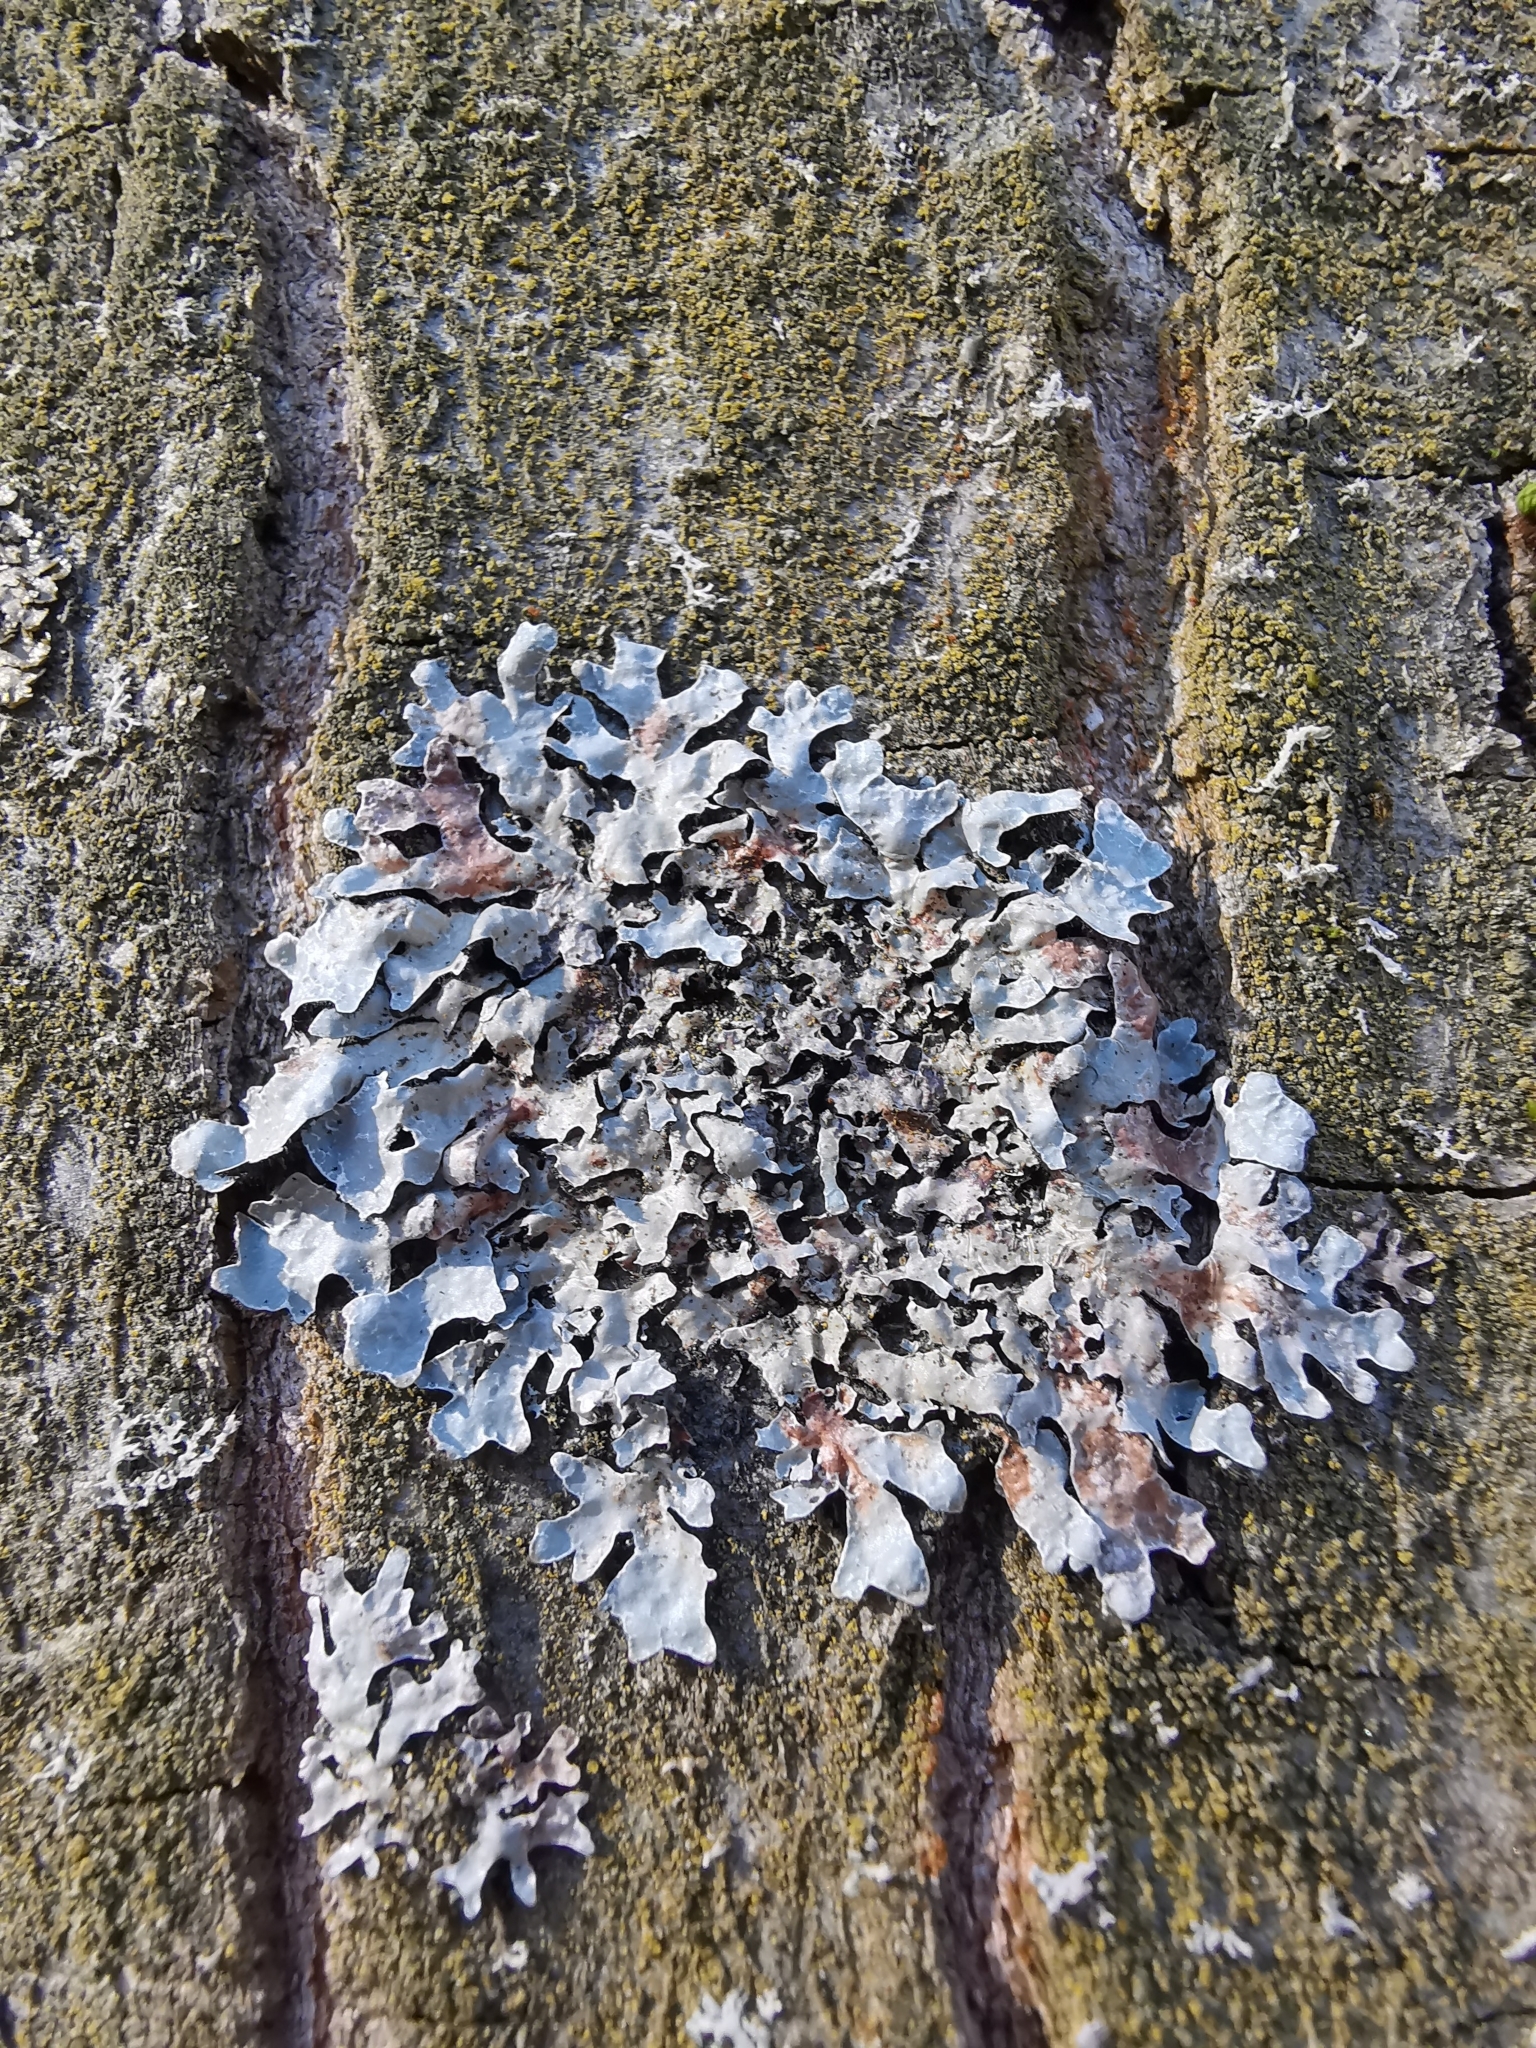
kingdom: Fungi
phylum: Ascomycota
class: Lecanoromycetes
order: Lecanorales
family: Parmeliaceae
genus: Parmelia
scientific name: Parmelia sulcata
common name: Netted shield lichen
